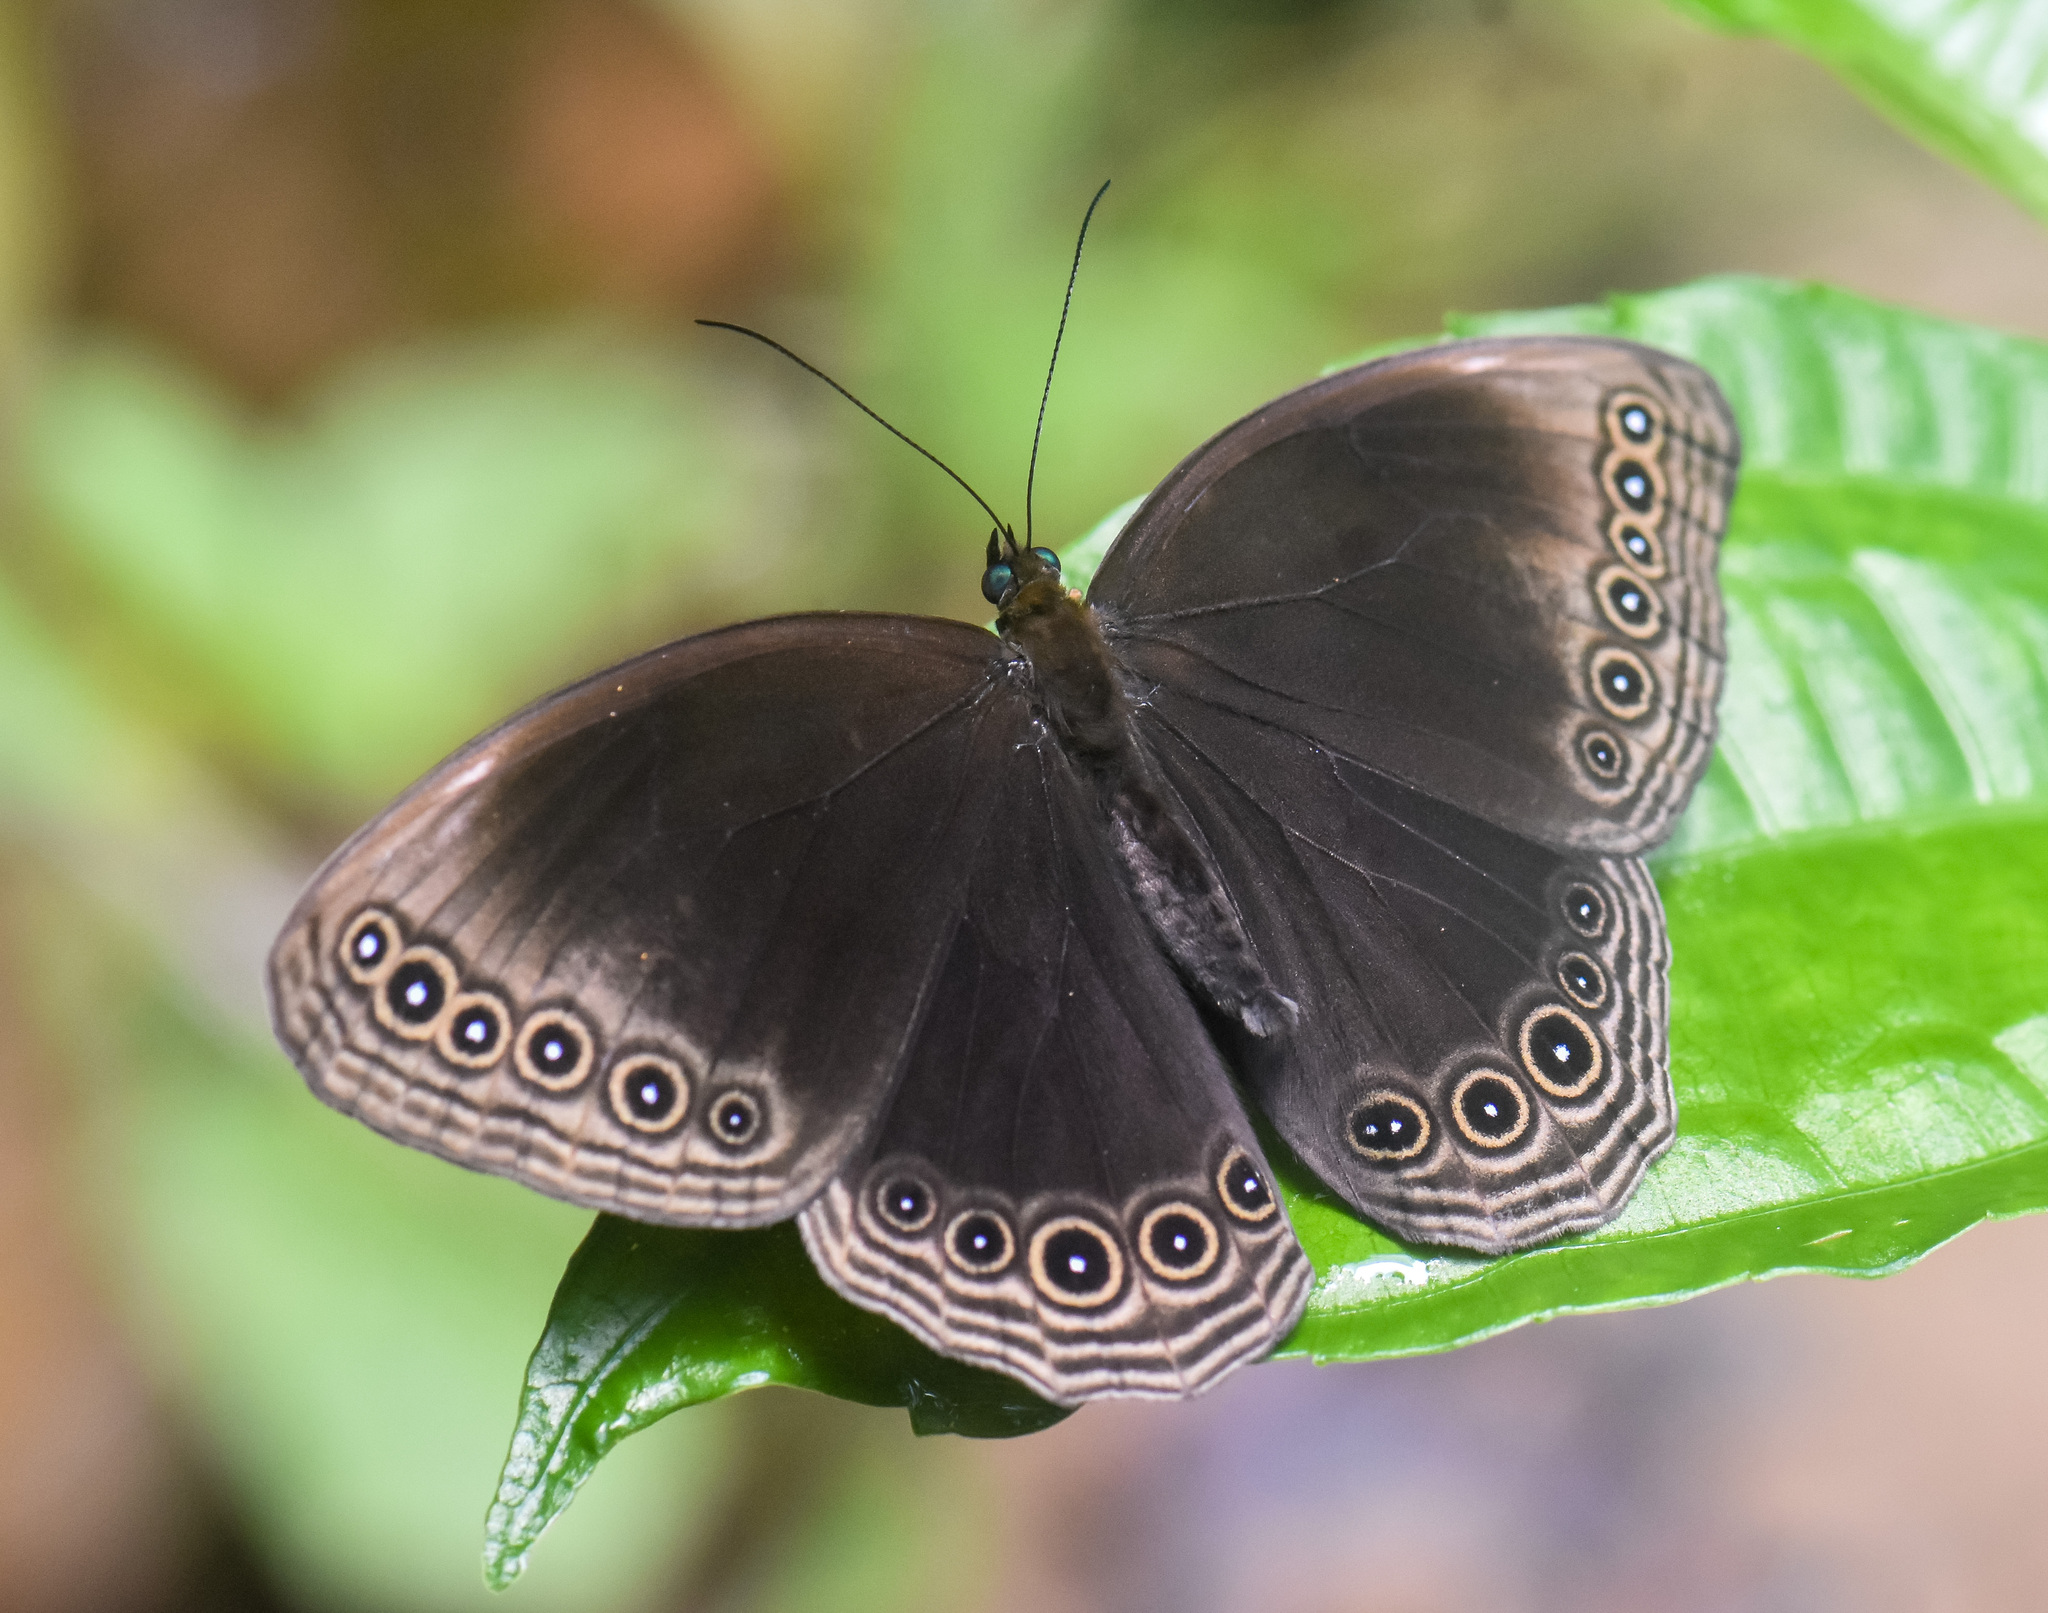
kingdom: Animalia
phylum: Arthropoda
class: Insecta
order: Lepidoptera
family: Nymphalidae
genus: Ethope
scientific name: Ethope himachala
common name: Dusky diadem
